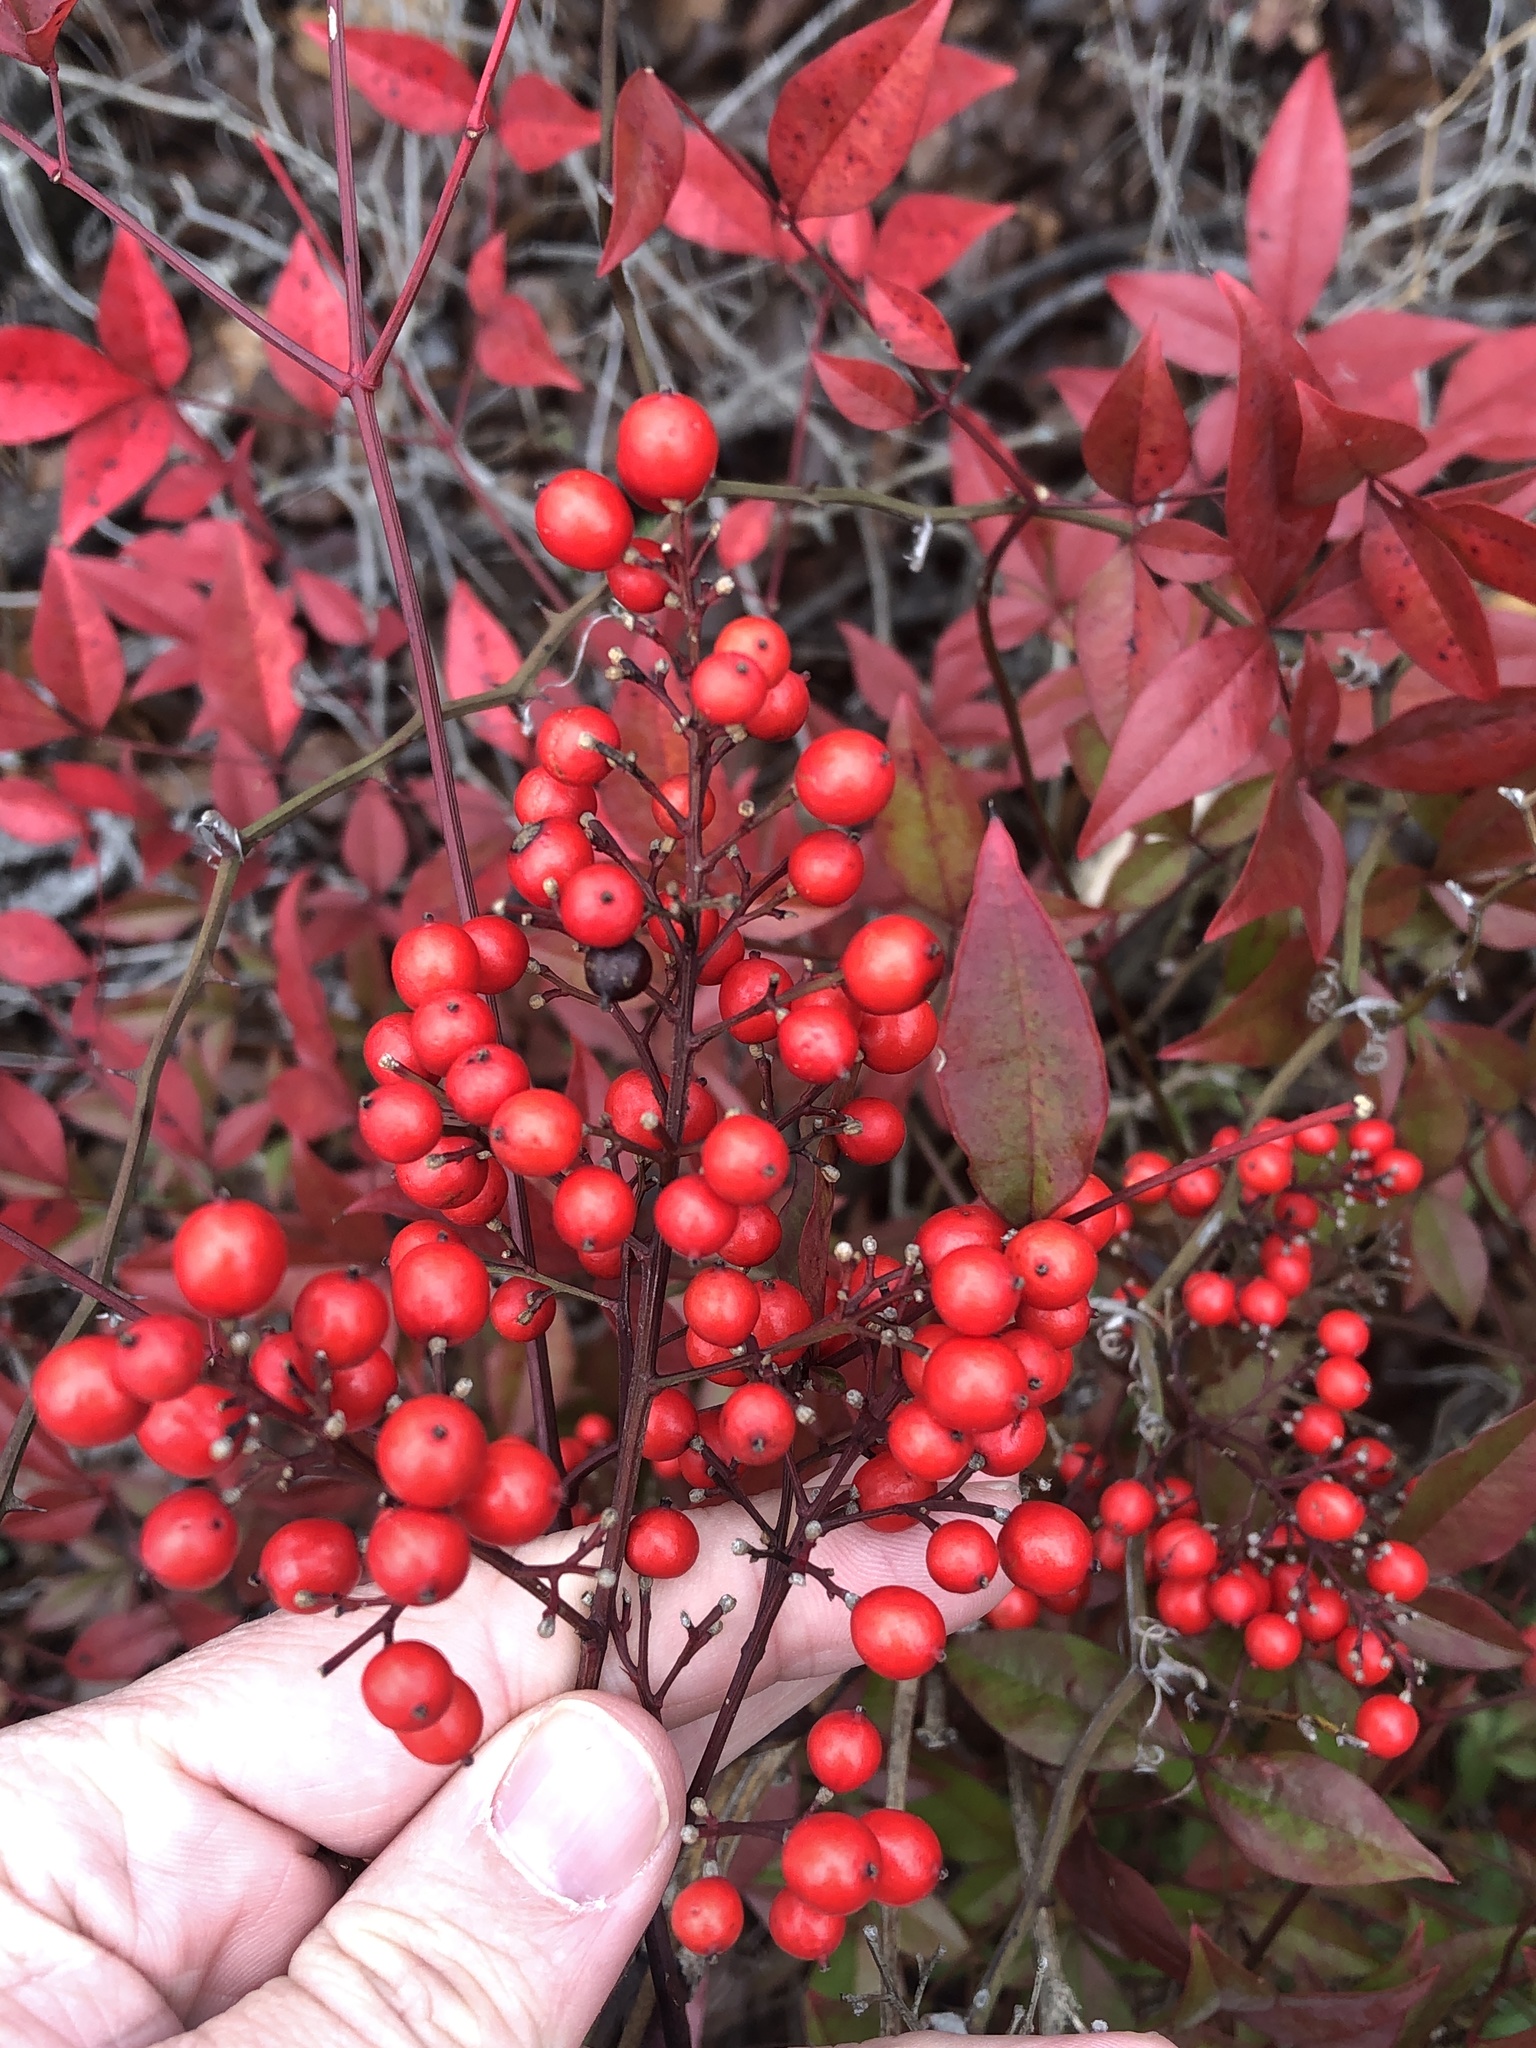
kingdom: Plantae
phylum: Tracheophyta
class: Magnoliopsida
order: Ranunculales
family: Berberidaceae
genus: Nandina
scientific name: Nandina domestica
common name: Sacred bamboo
